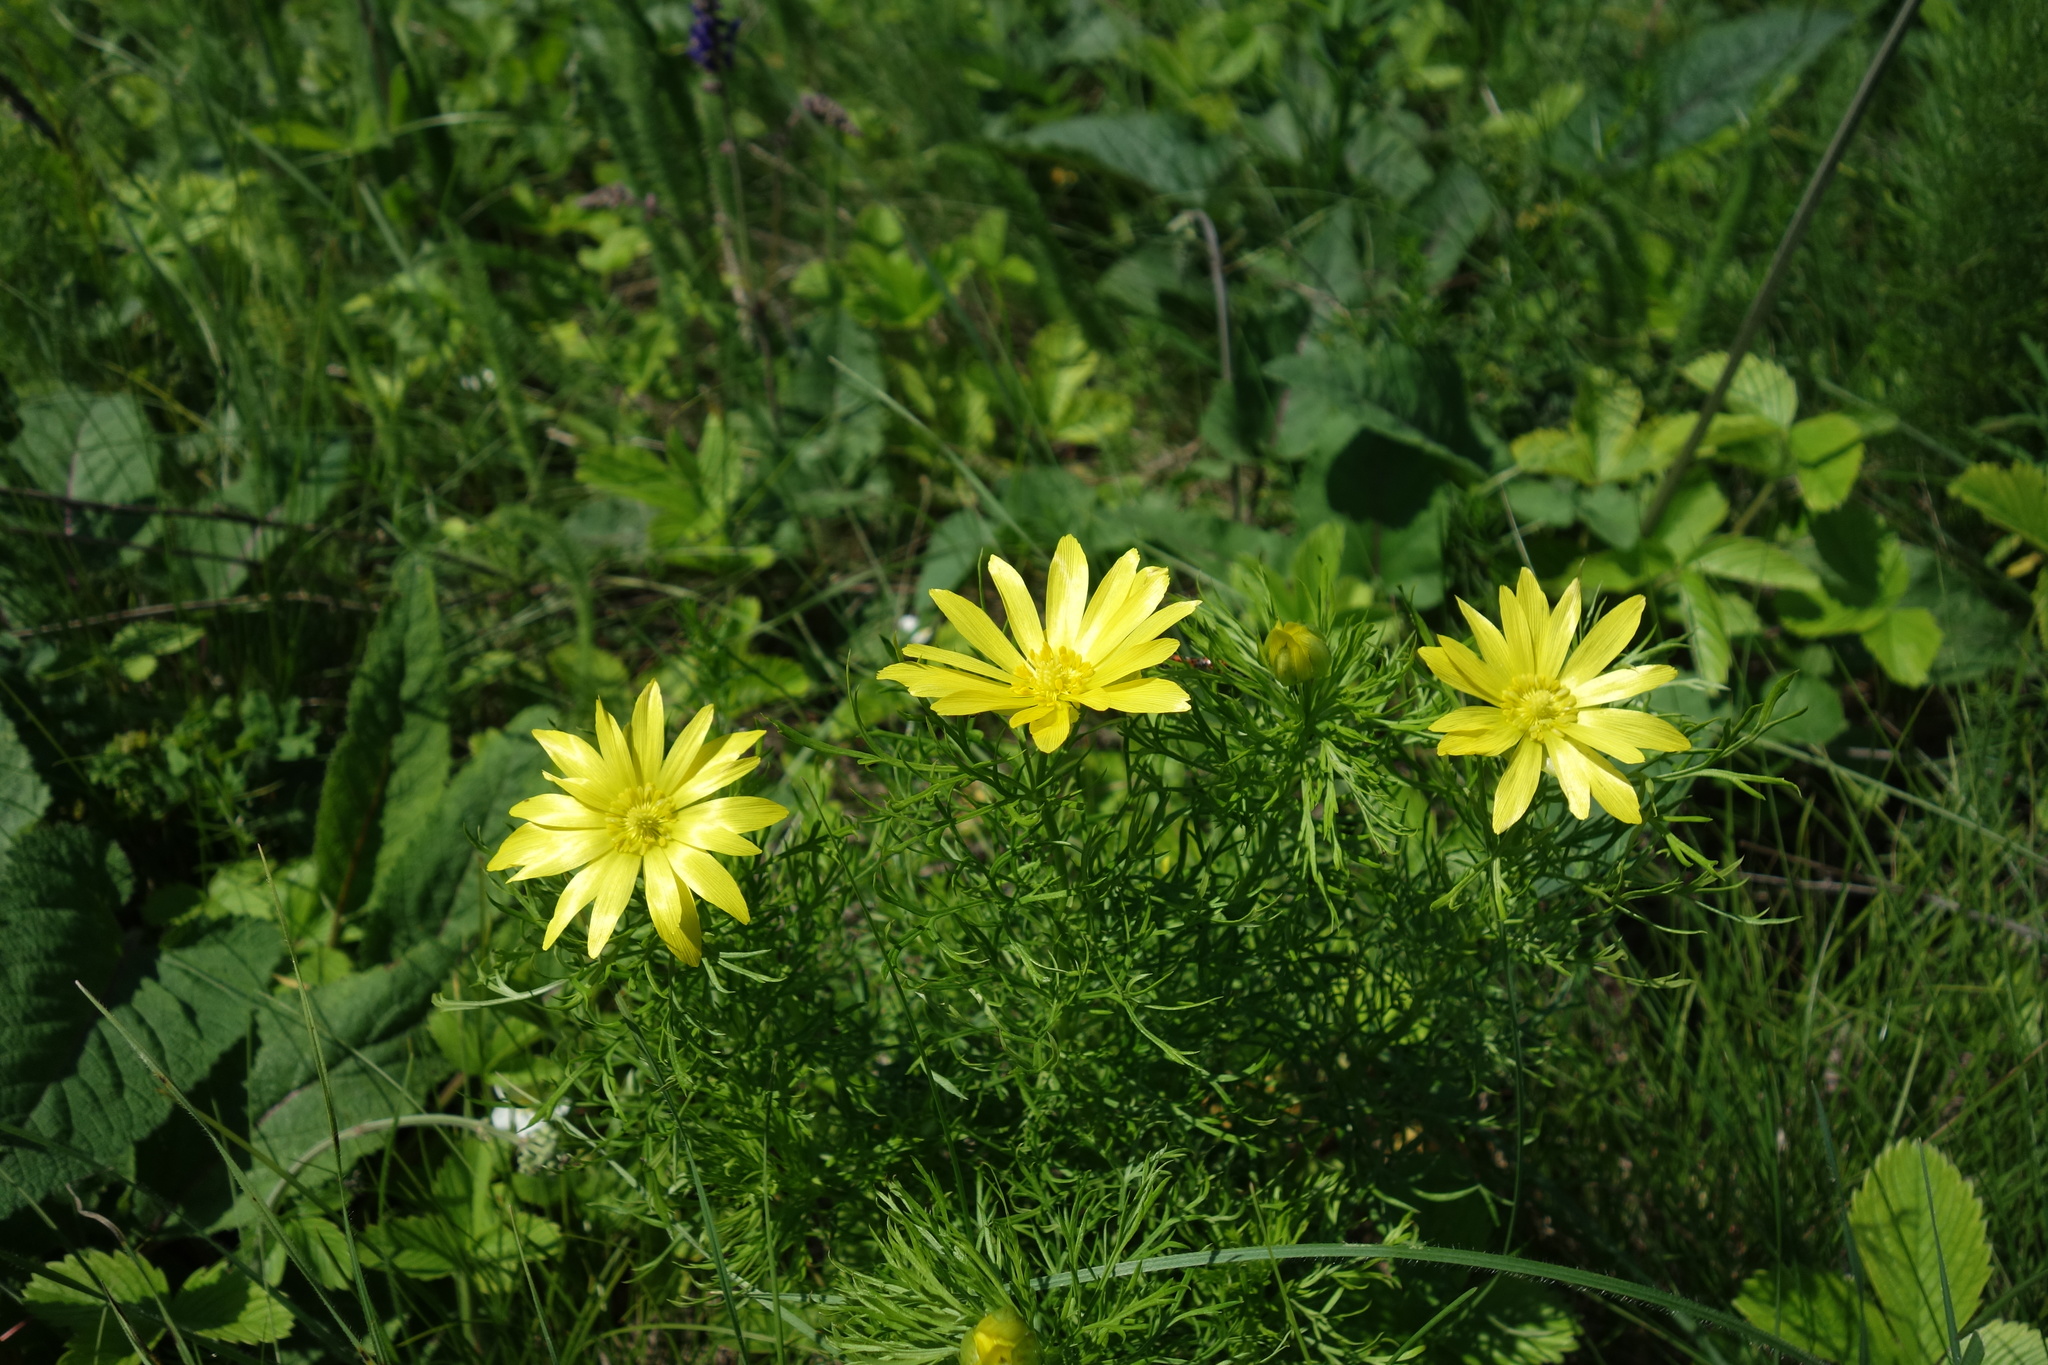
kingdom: Plantae
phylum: Tracheophyta
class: Magnoliopsida
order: Ranunculales
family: Ranunculaceae
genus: Adonis
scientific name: Adonis vernalis
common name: Yellow pheasants-eye
